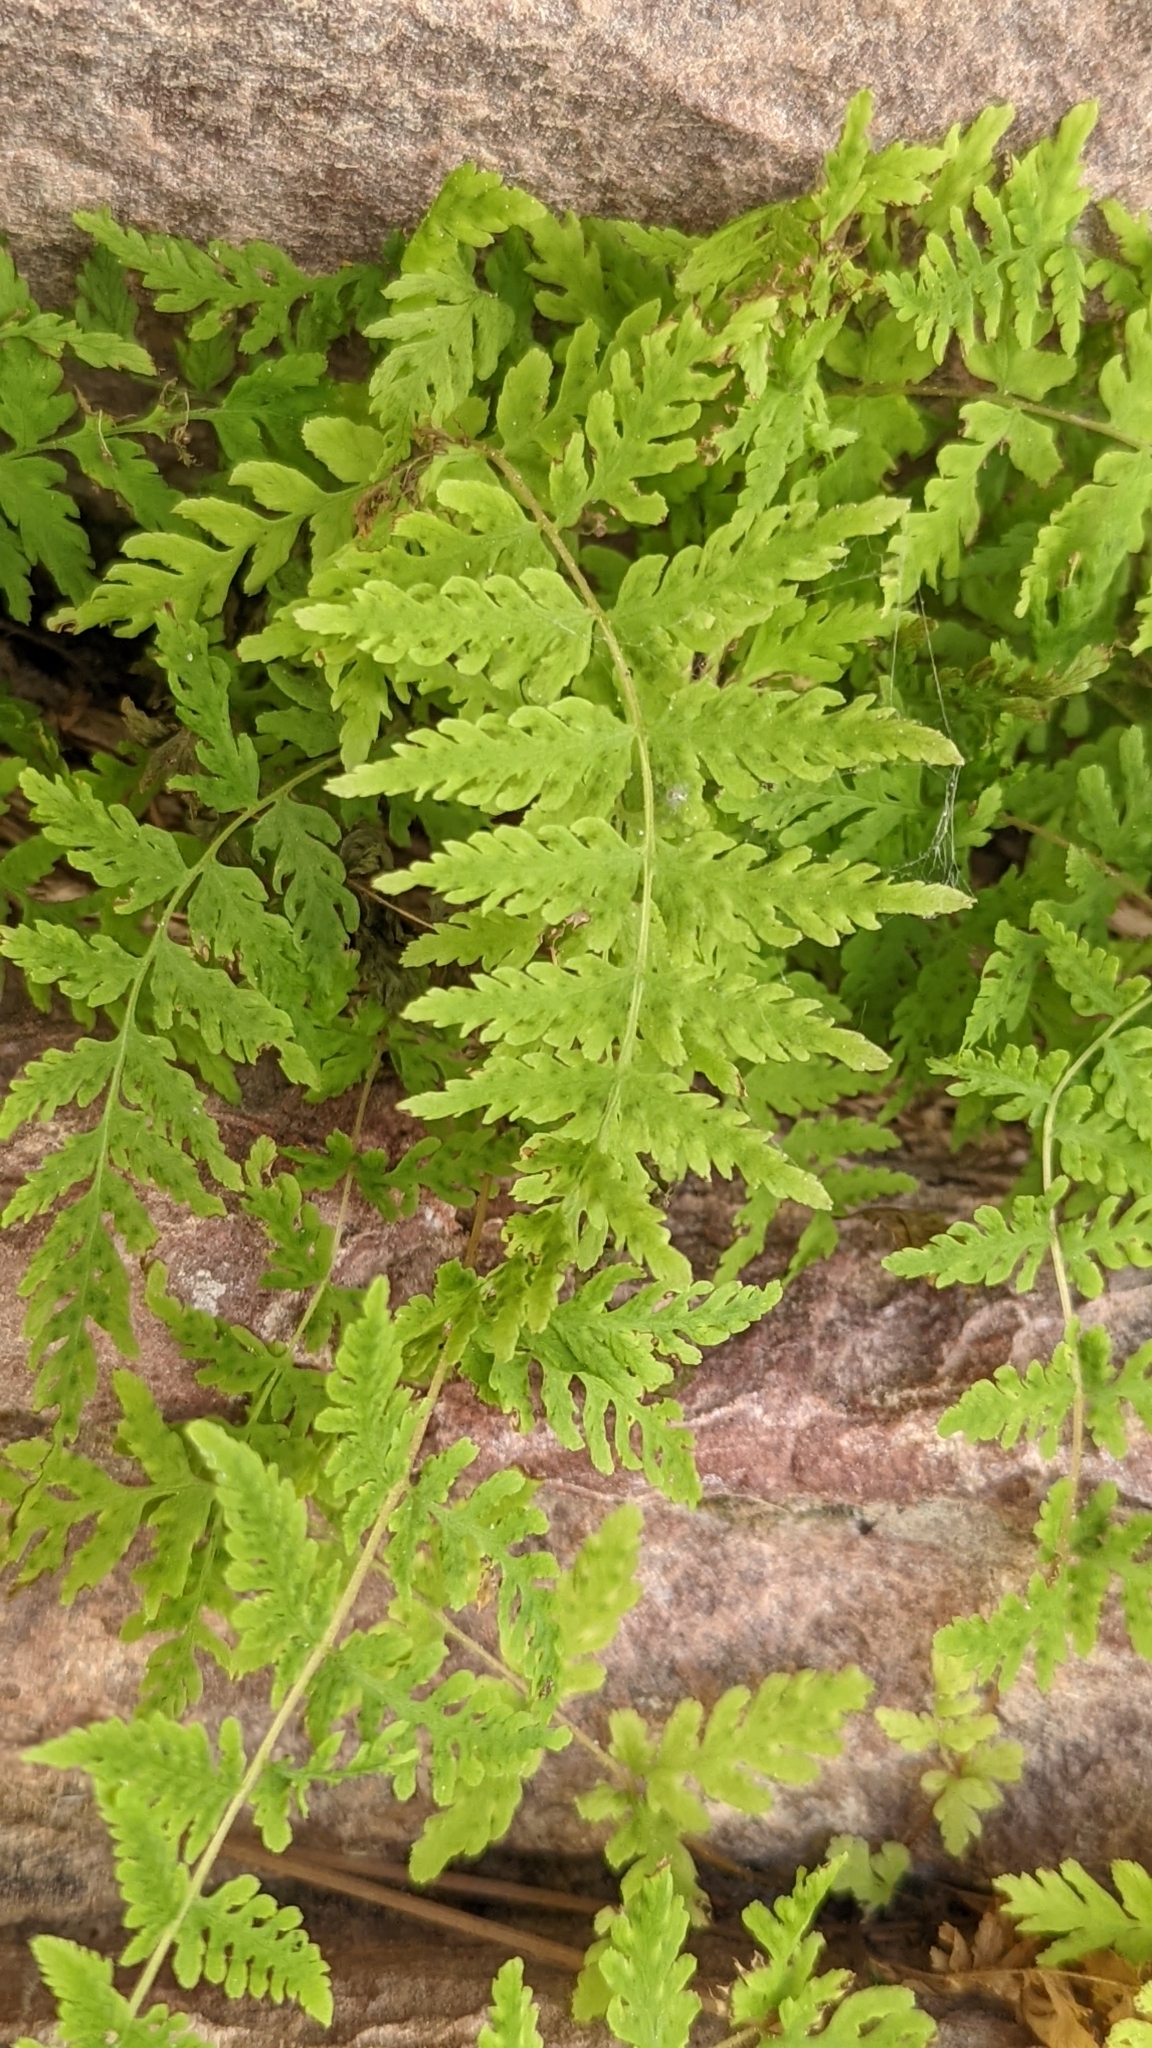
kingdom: Plantae
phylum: Tracheophyta
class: Polypodiopsida
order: Polypodiales
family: Cystopteridaceae
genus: Cystopteris
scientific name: Cystopteris utahensis
